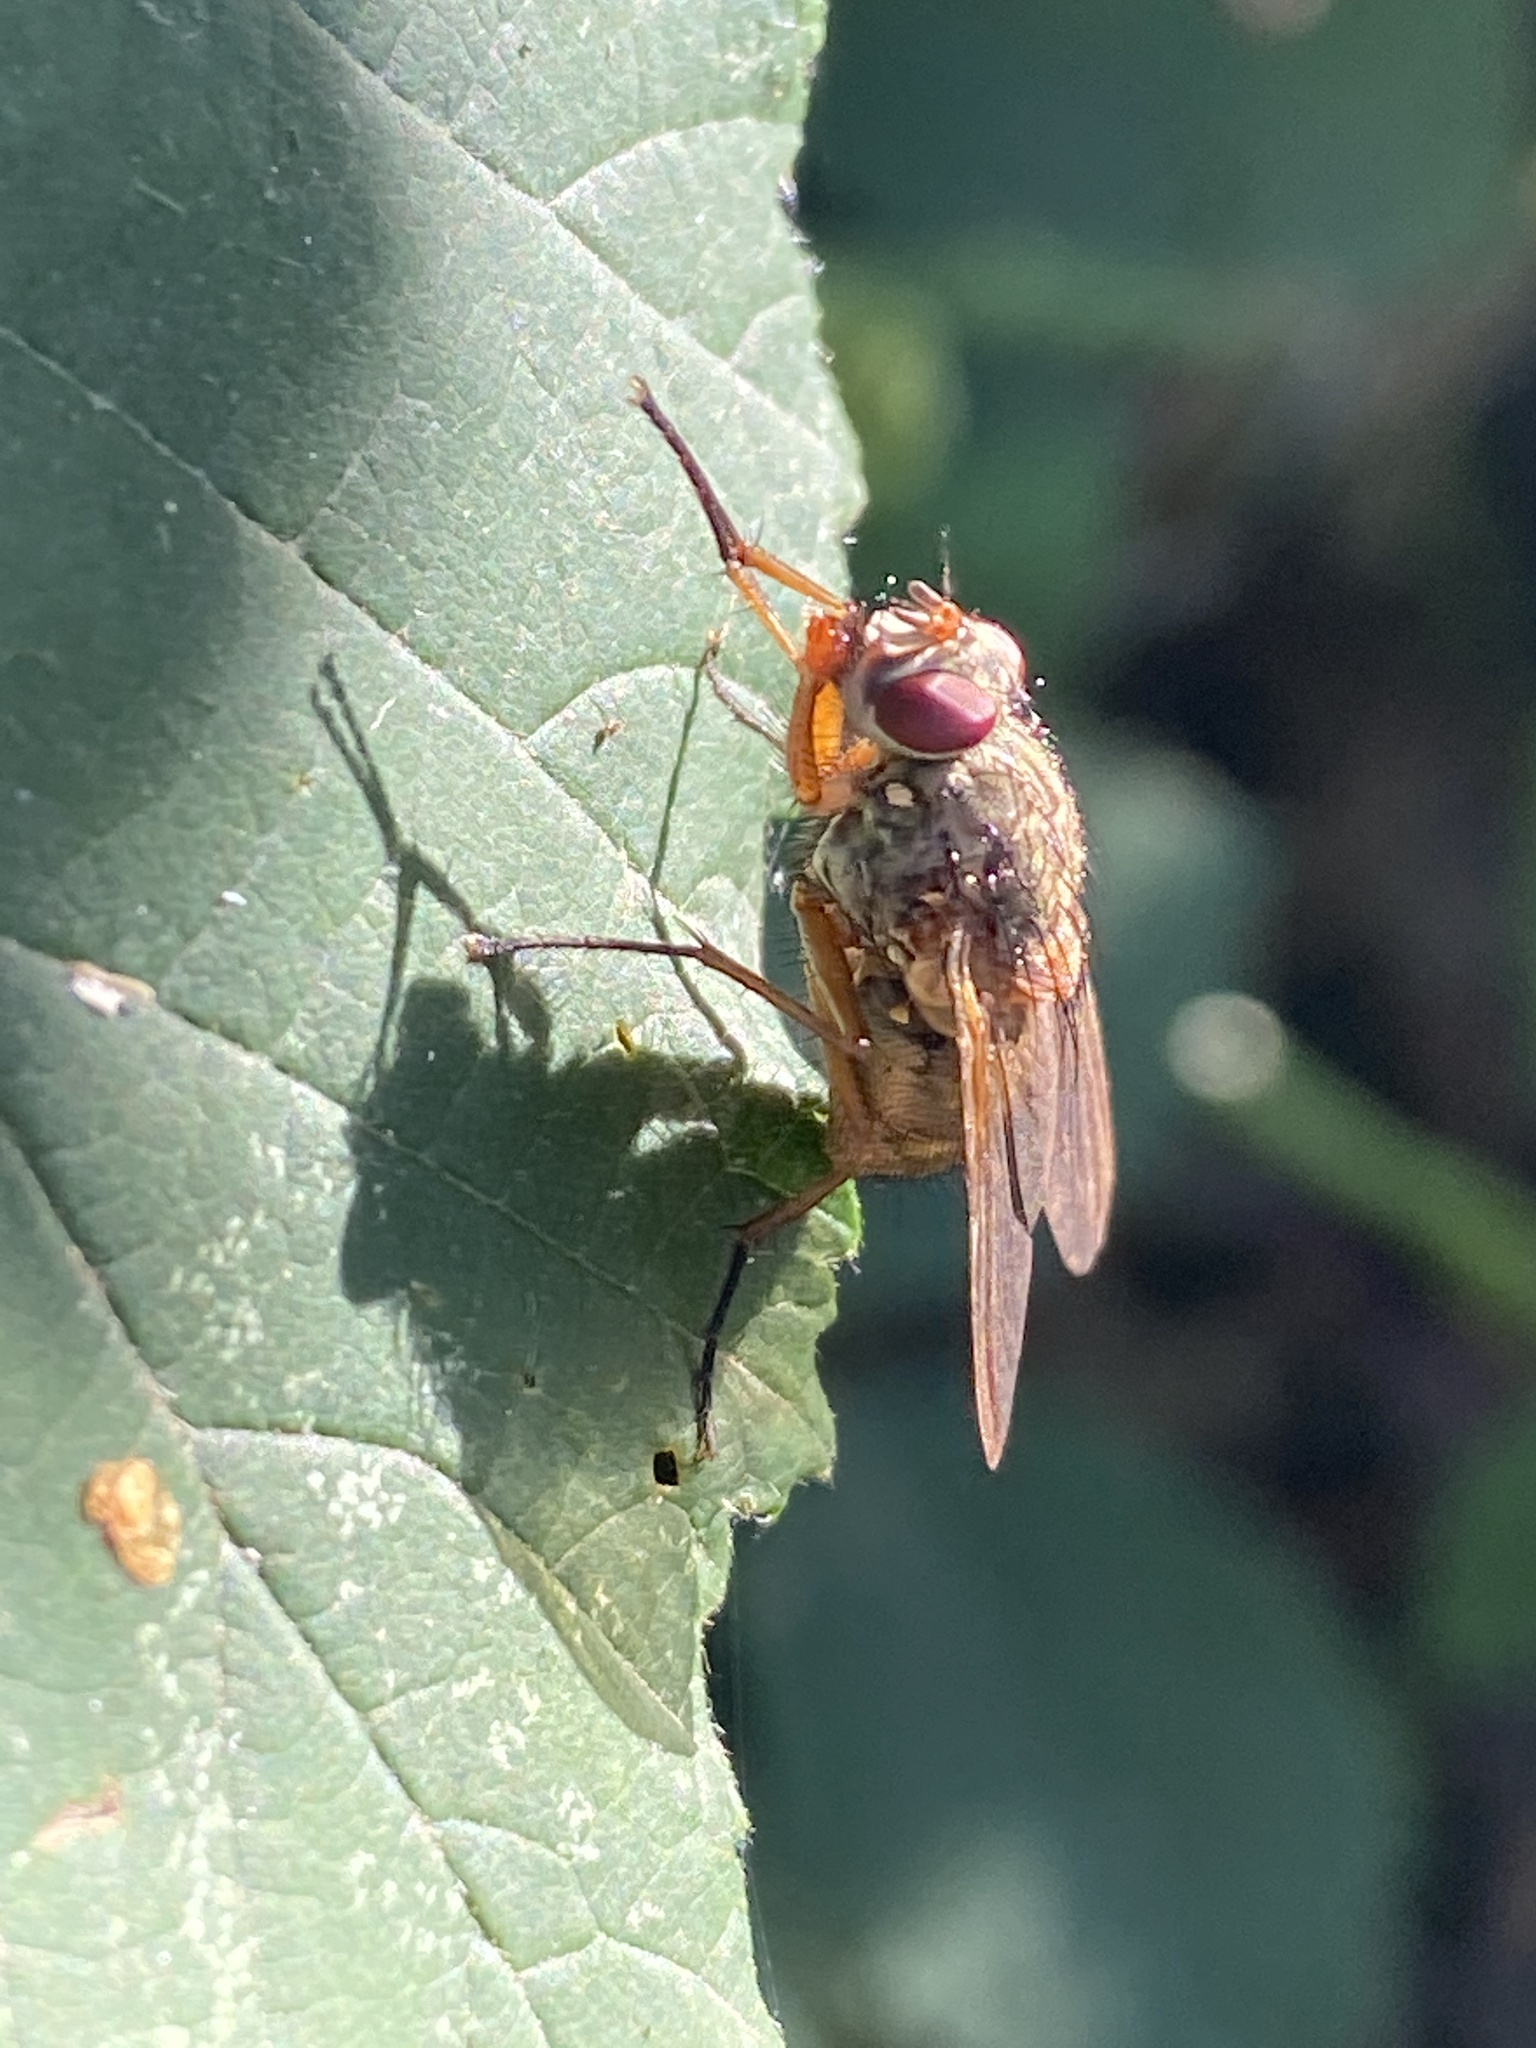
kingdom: Animalia
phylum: Arthropoda
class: Insecta
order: Diptera
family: Muscidae
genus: Phaonia
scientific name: Phaonia valida
